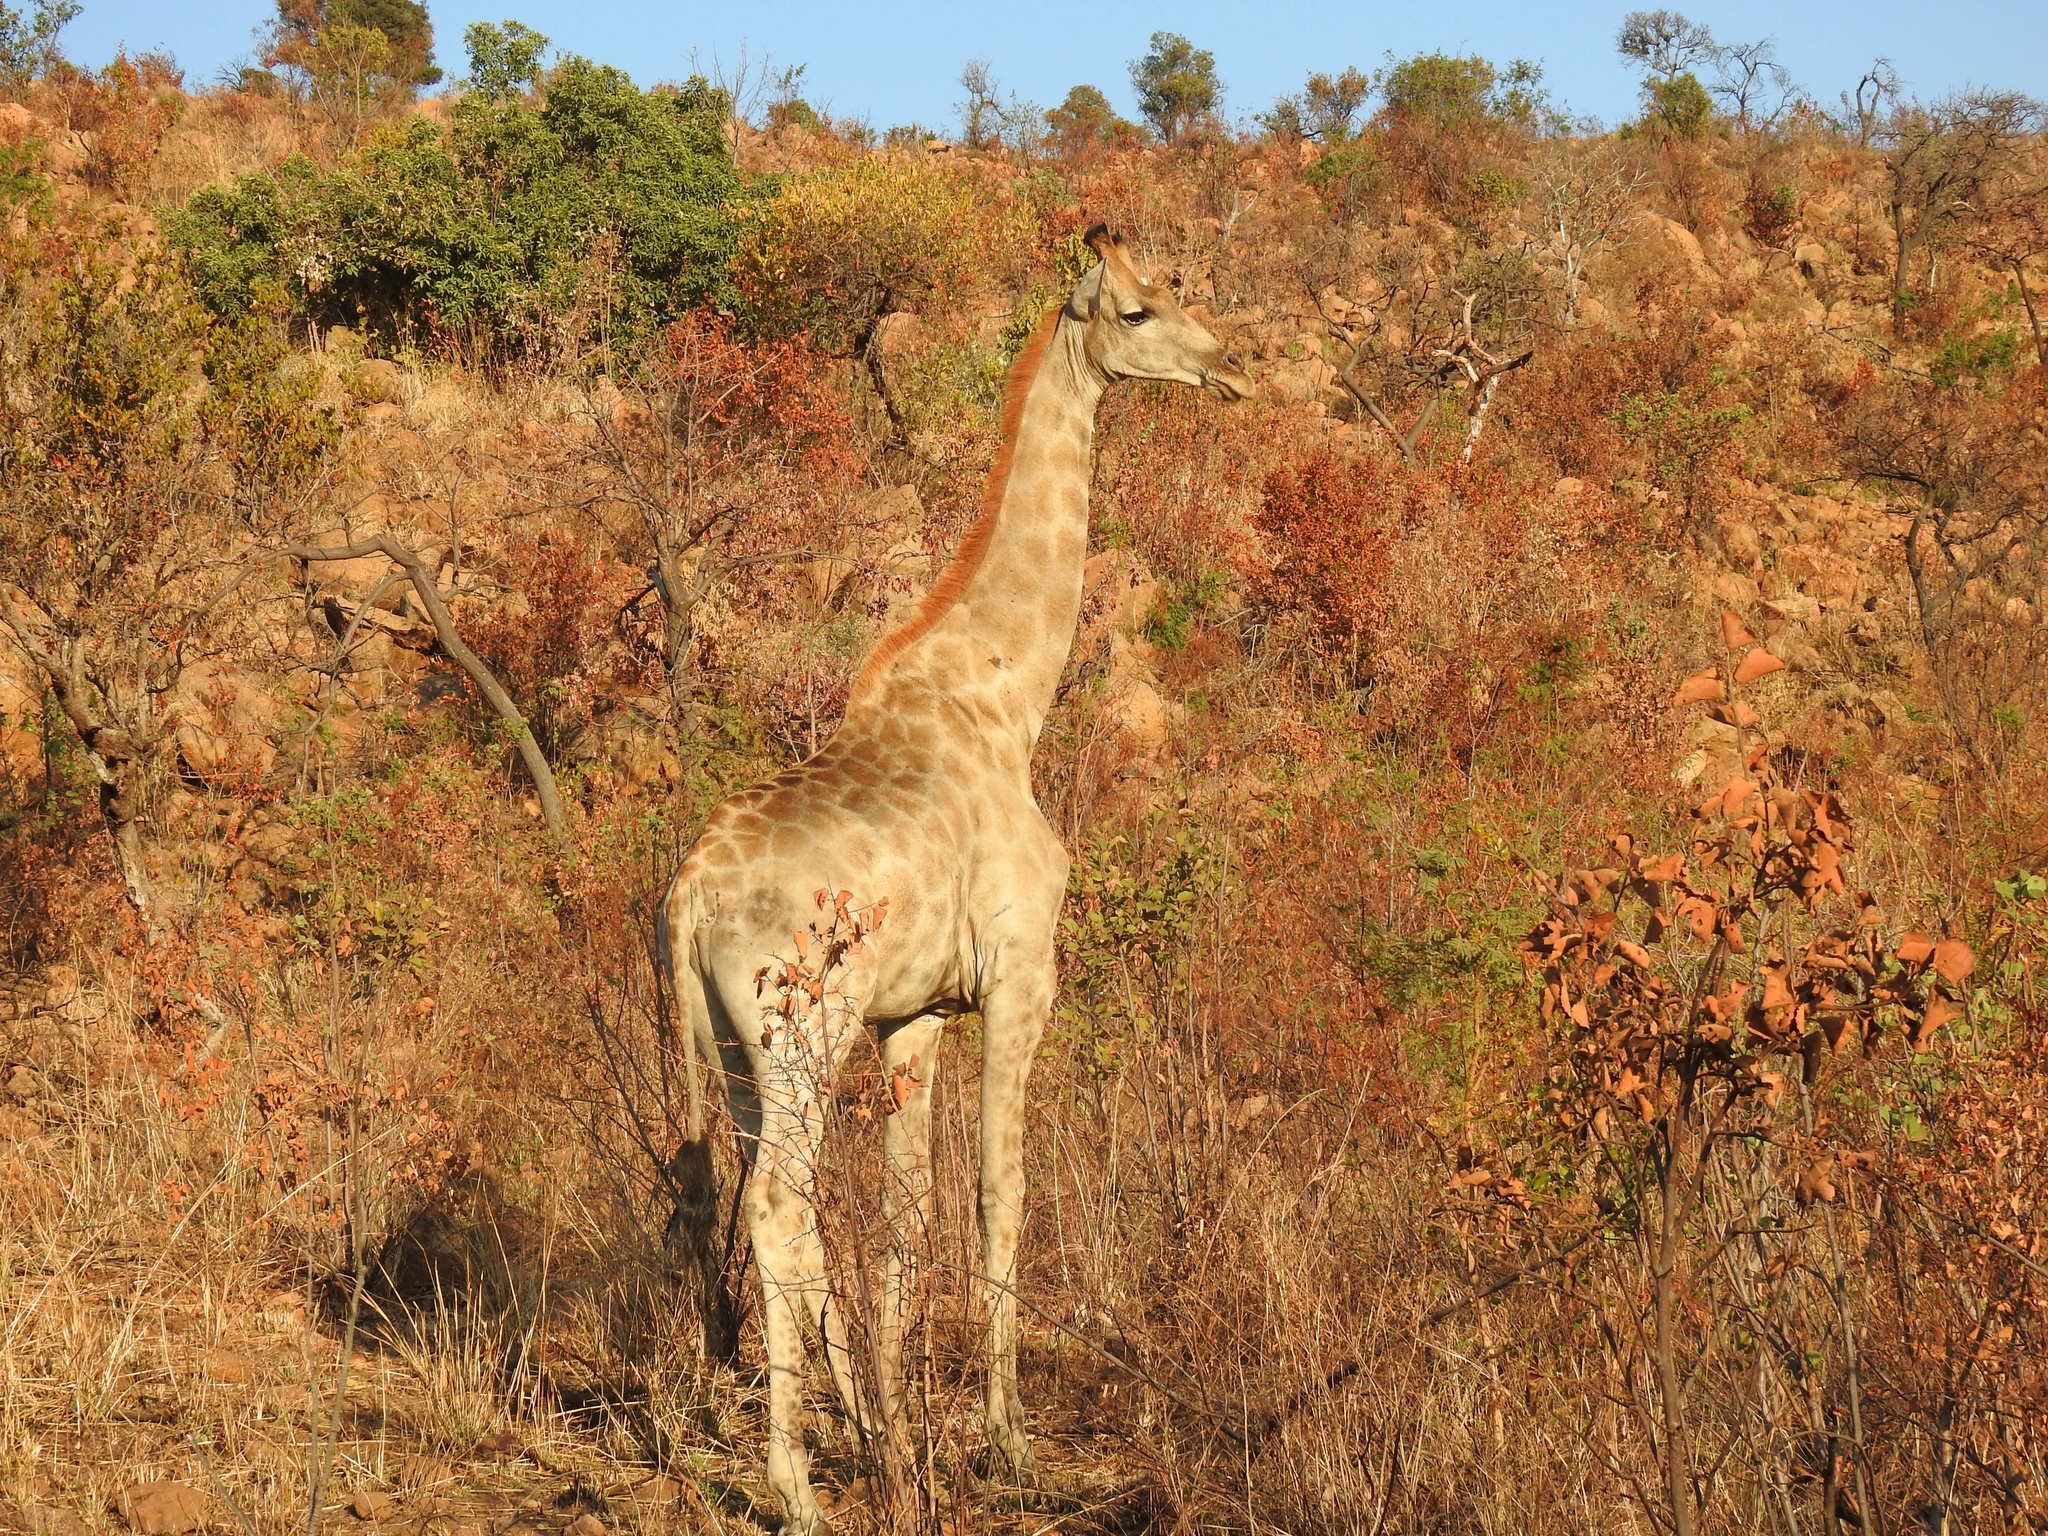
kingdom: Animalia
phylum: Chordata
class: Mammalia
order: Artiodactyla
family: Giraffidae
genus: Giraffa
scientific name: Giraffa giraffa
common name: Southern giraffe
